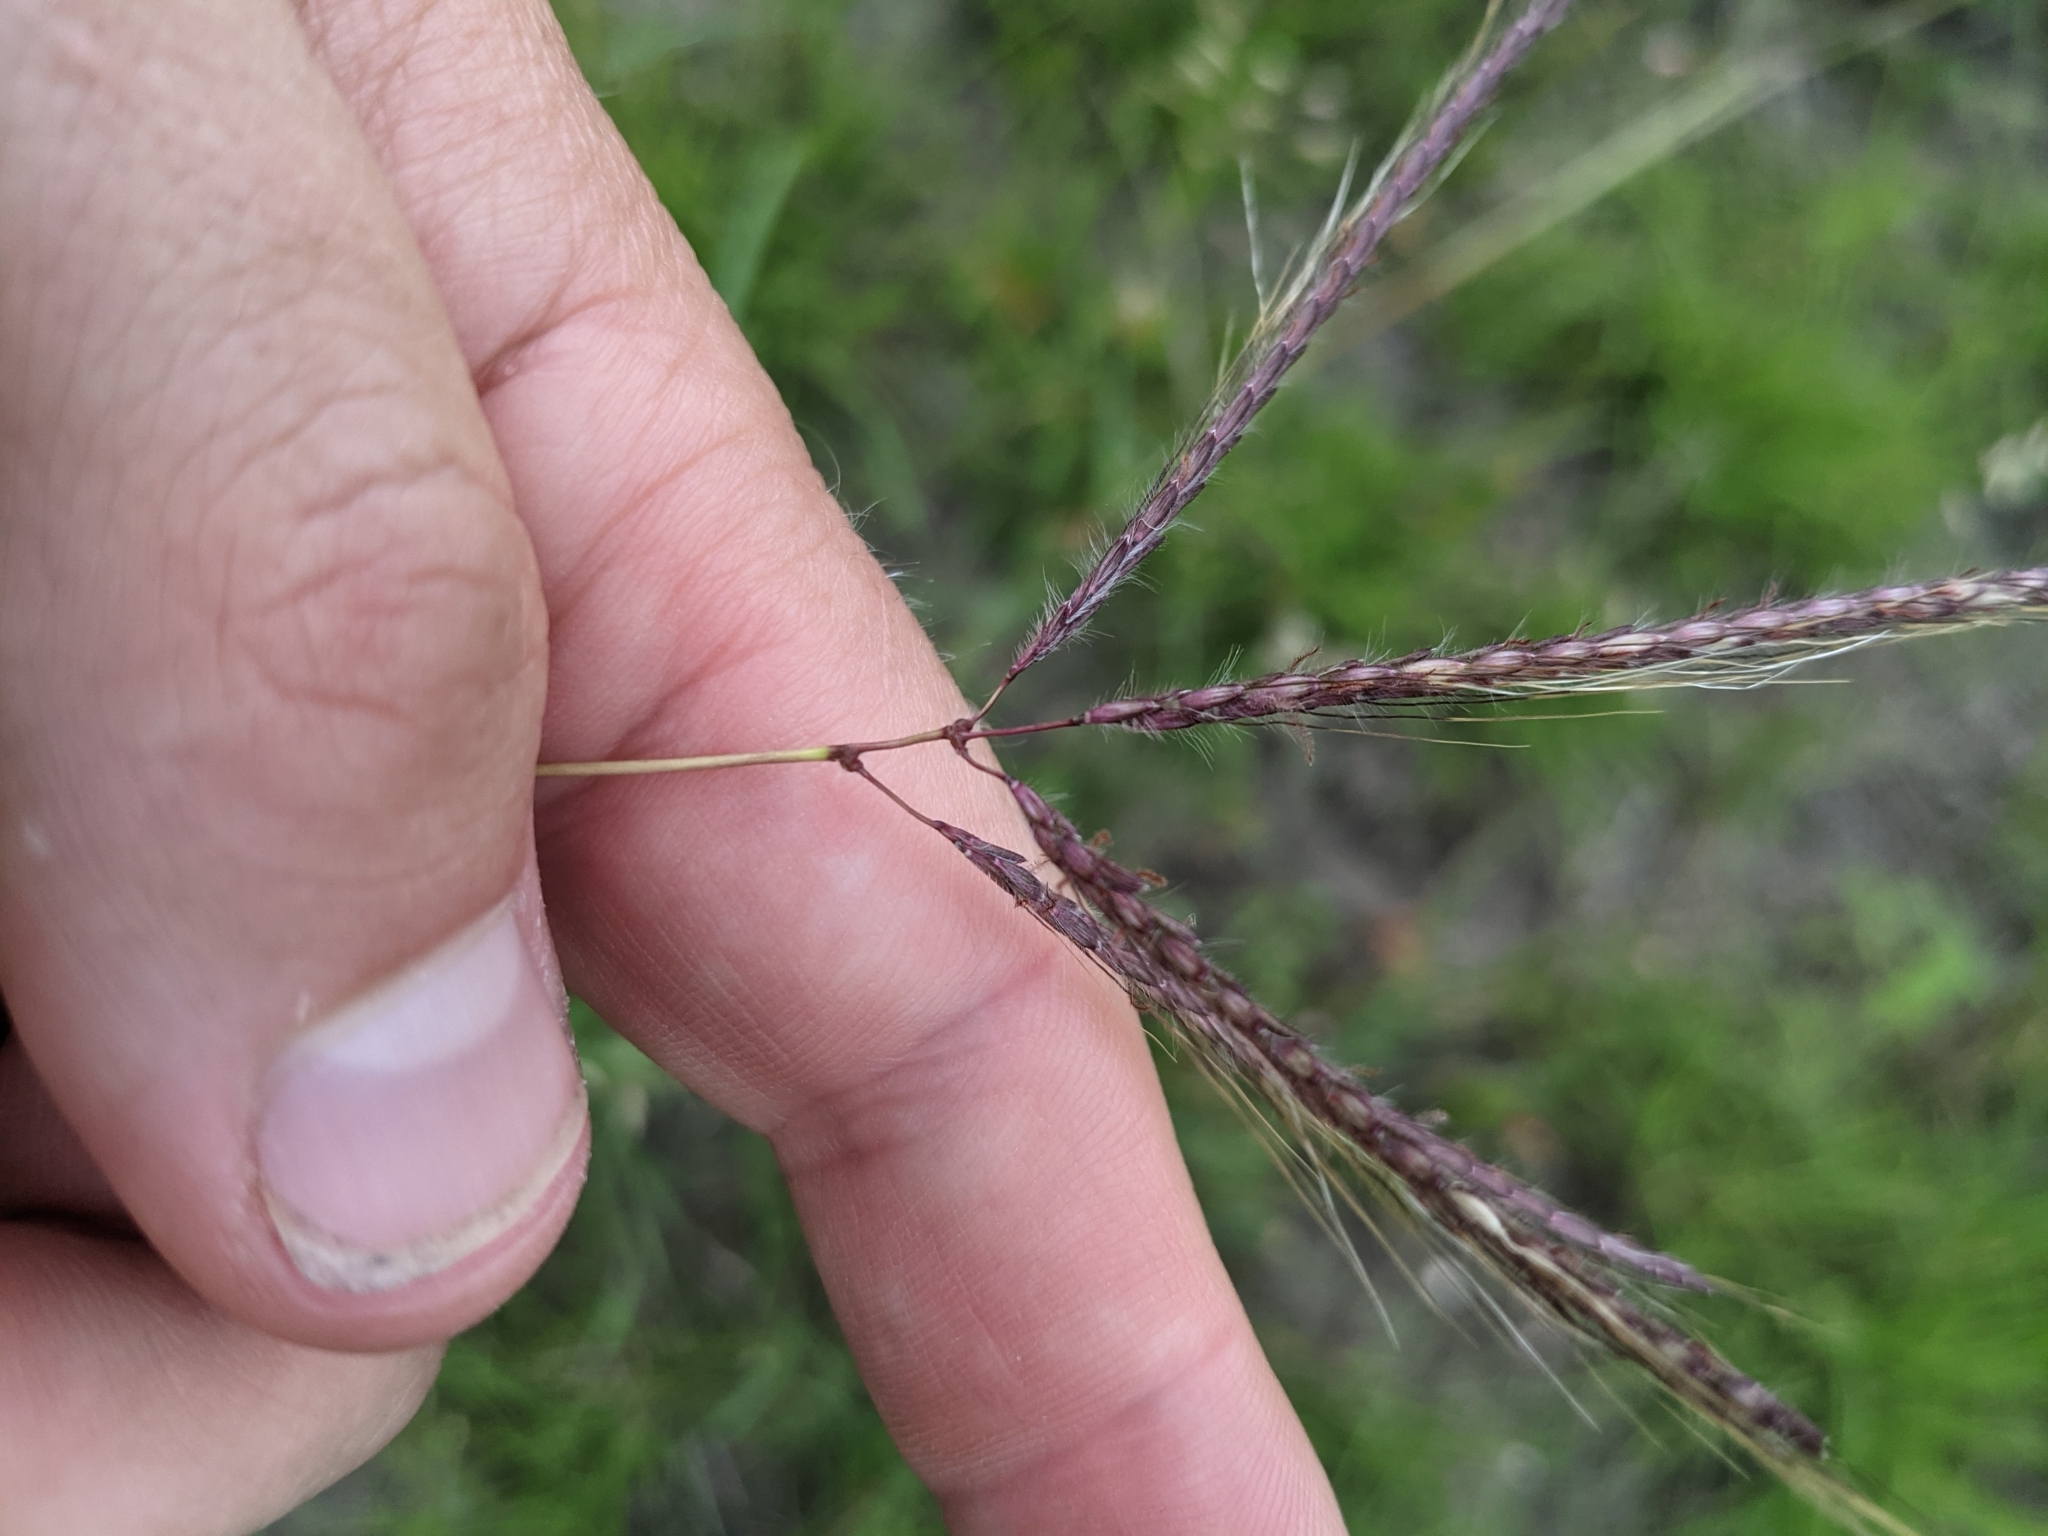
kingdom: Plantae
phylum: Tracheophyta
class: Liliopsida
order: Poales
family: Poaceae
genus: Dichanthium
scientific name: Dichanthium annulatum
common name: Kleberg's bluestem
